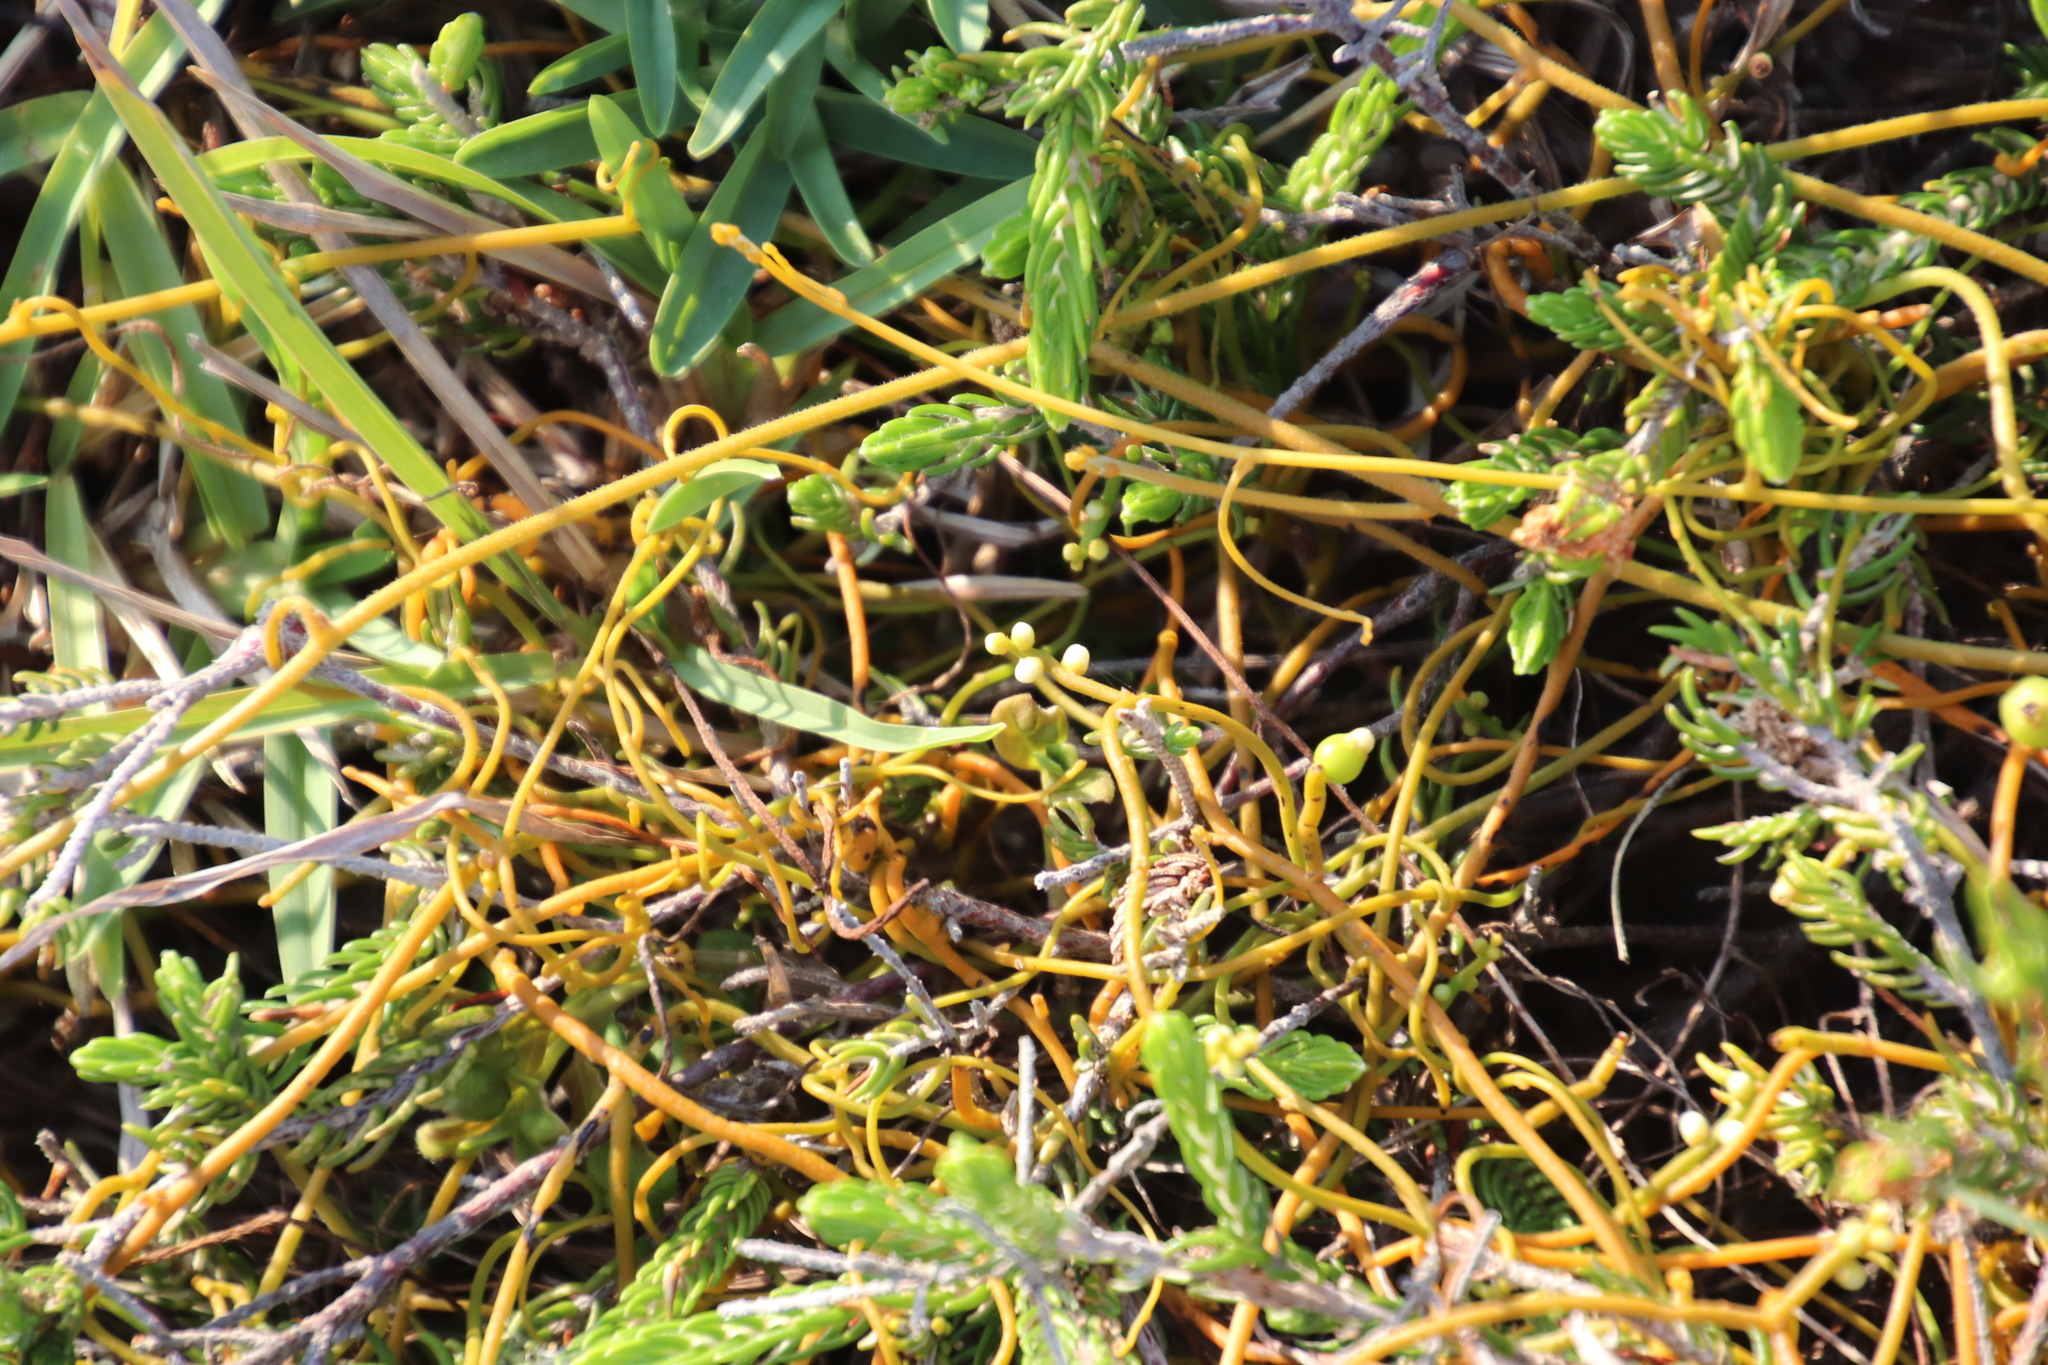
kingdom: Plantae
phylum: Tracheophyta
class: Magnoliopsida
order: Laurales
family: Lauraceae
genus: Cassytha
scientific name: Cassytha pondoensis
